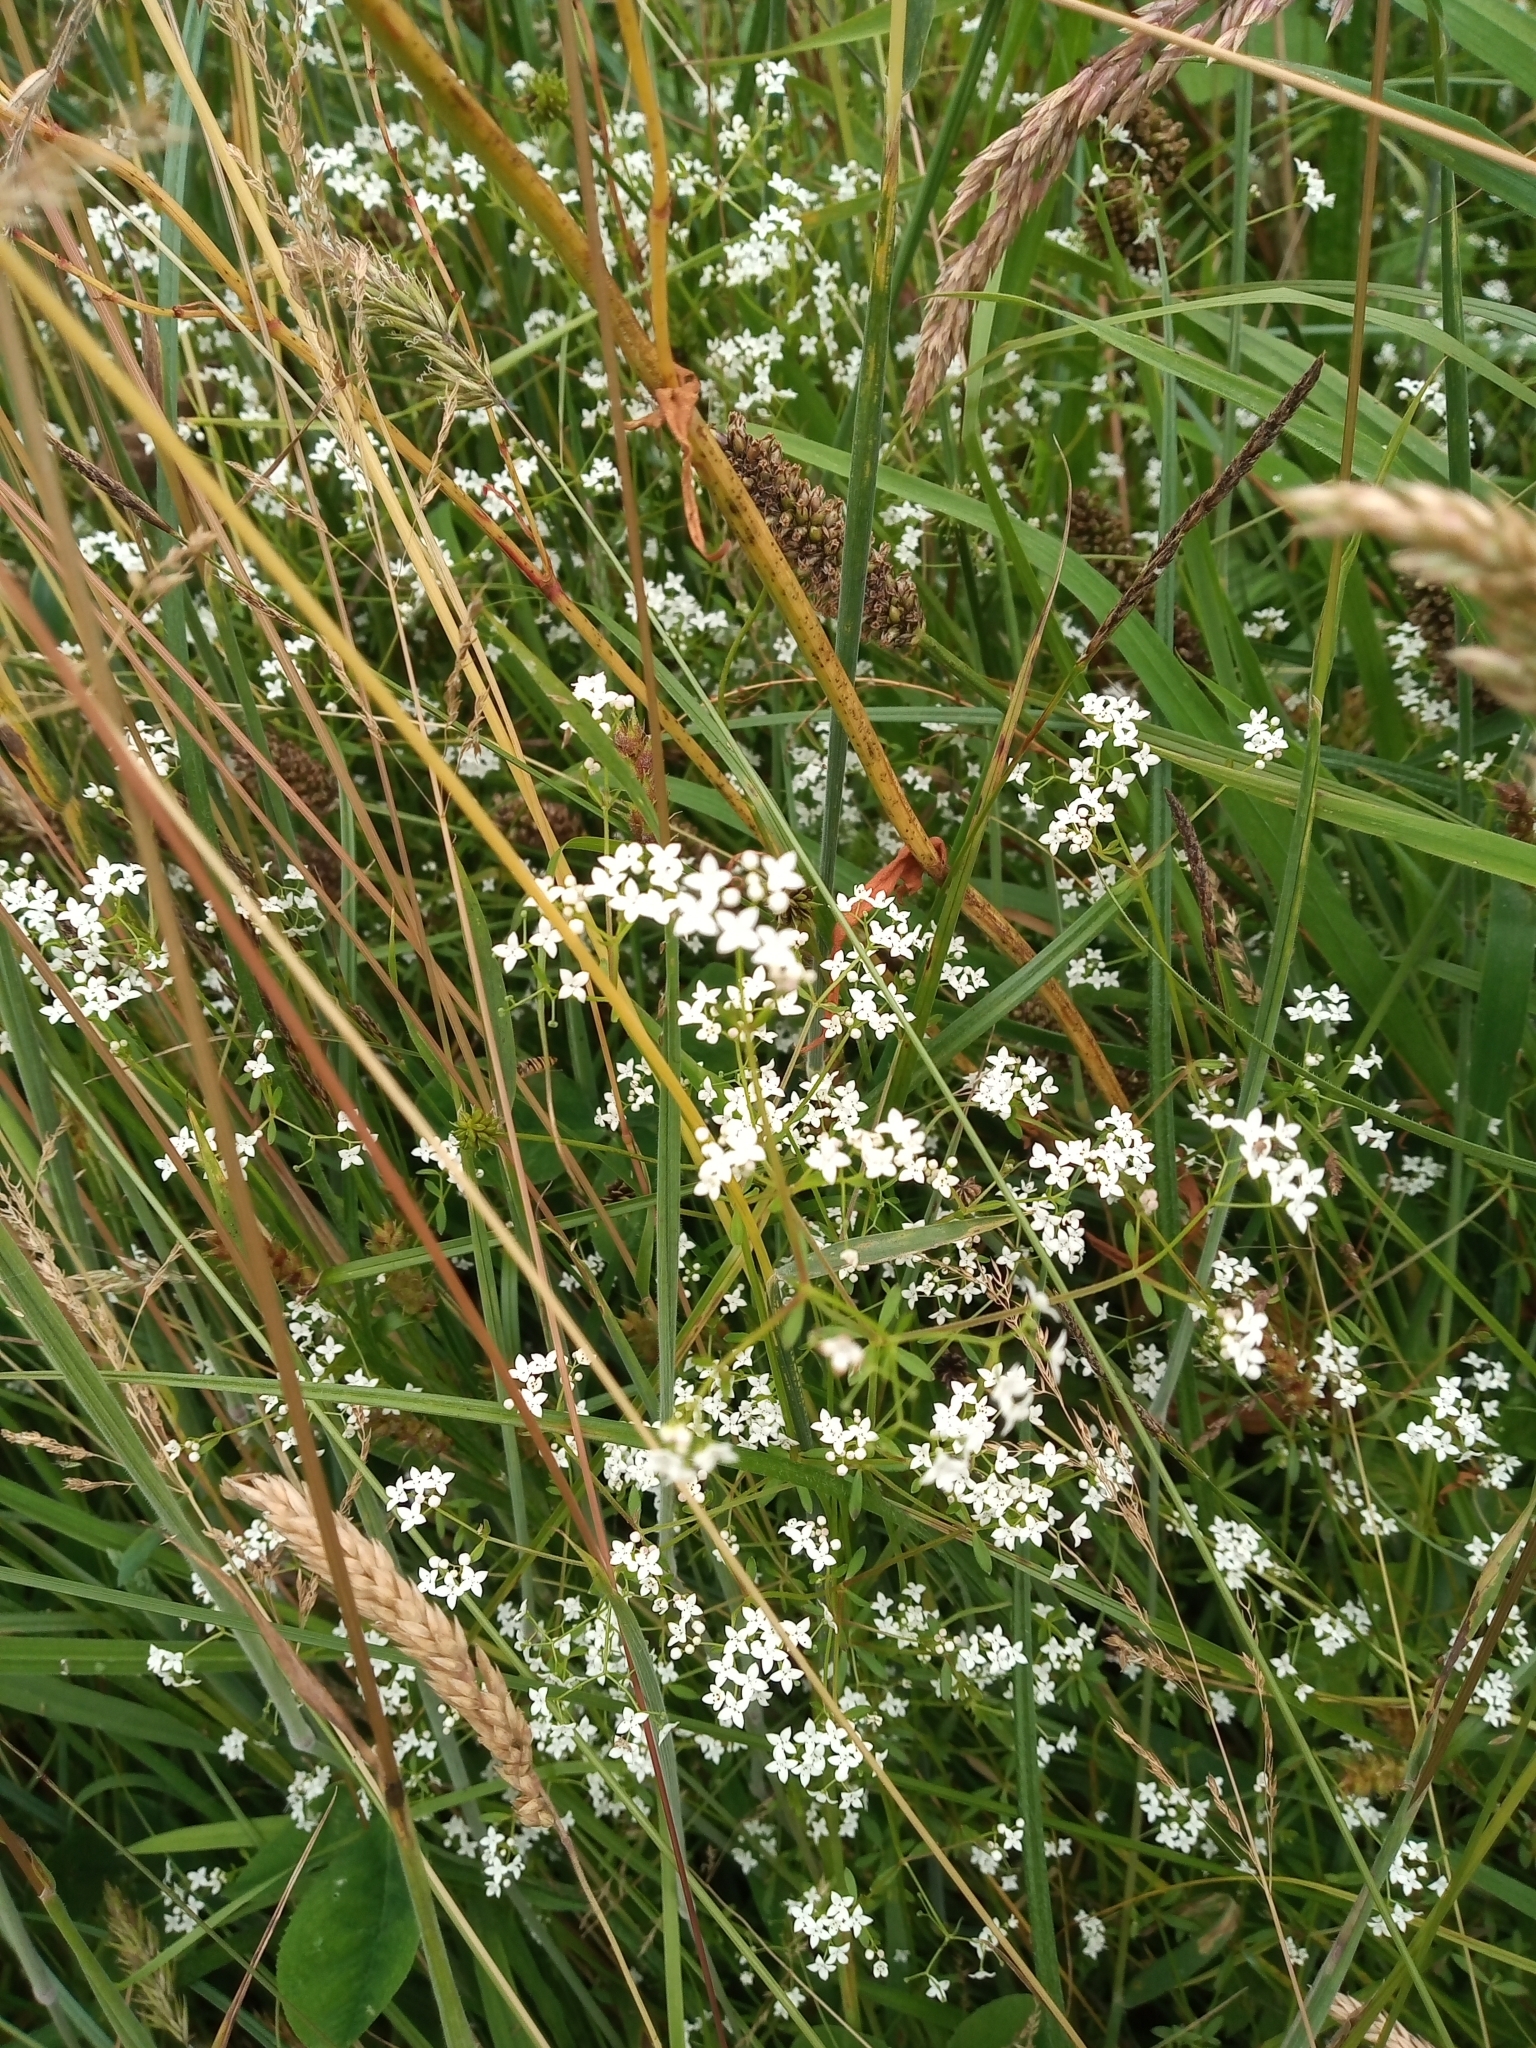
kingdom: Plantae
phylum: Tracheophyta
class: Magnoliopsida
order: Gentianales
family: Rubiaceae
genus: Galium
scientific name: Galium palustre
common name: Common marsh-bedstraw
